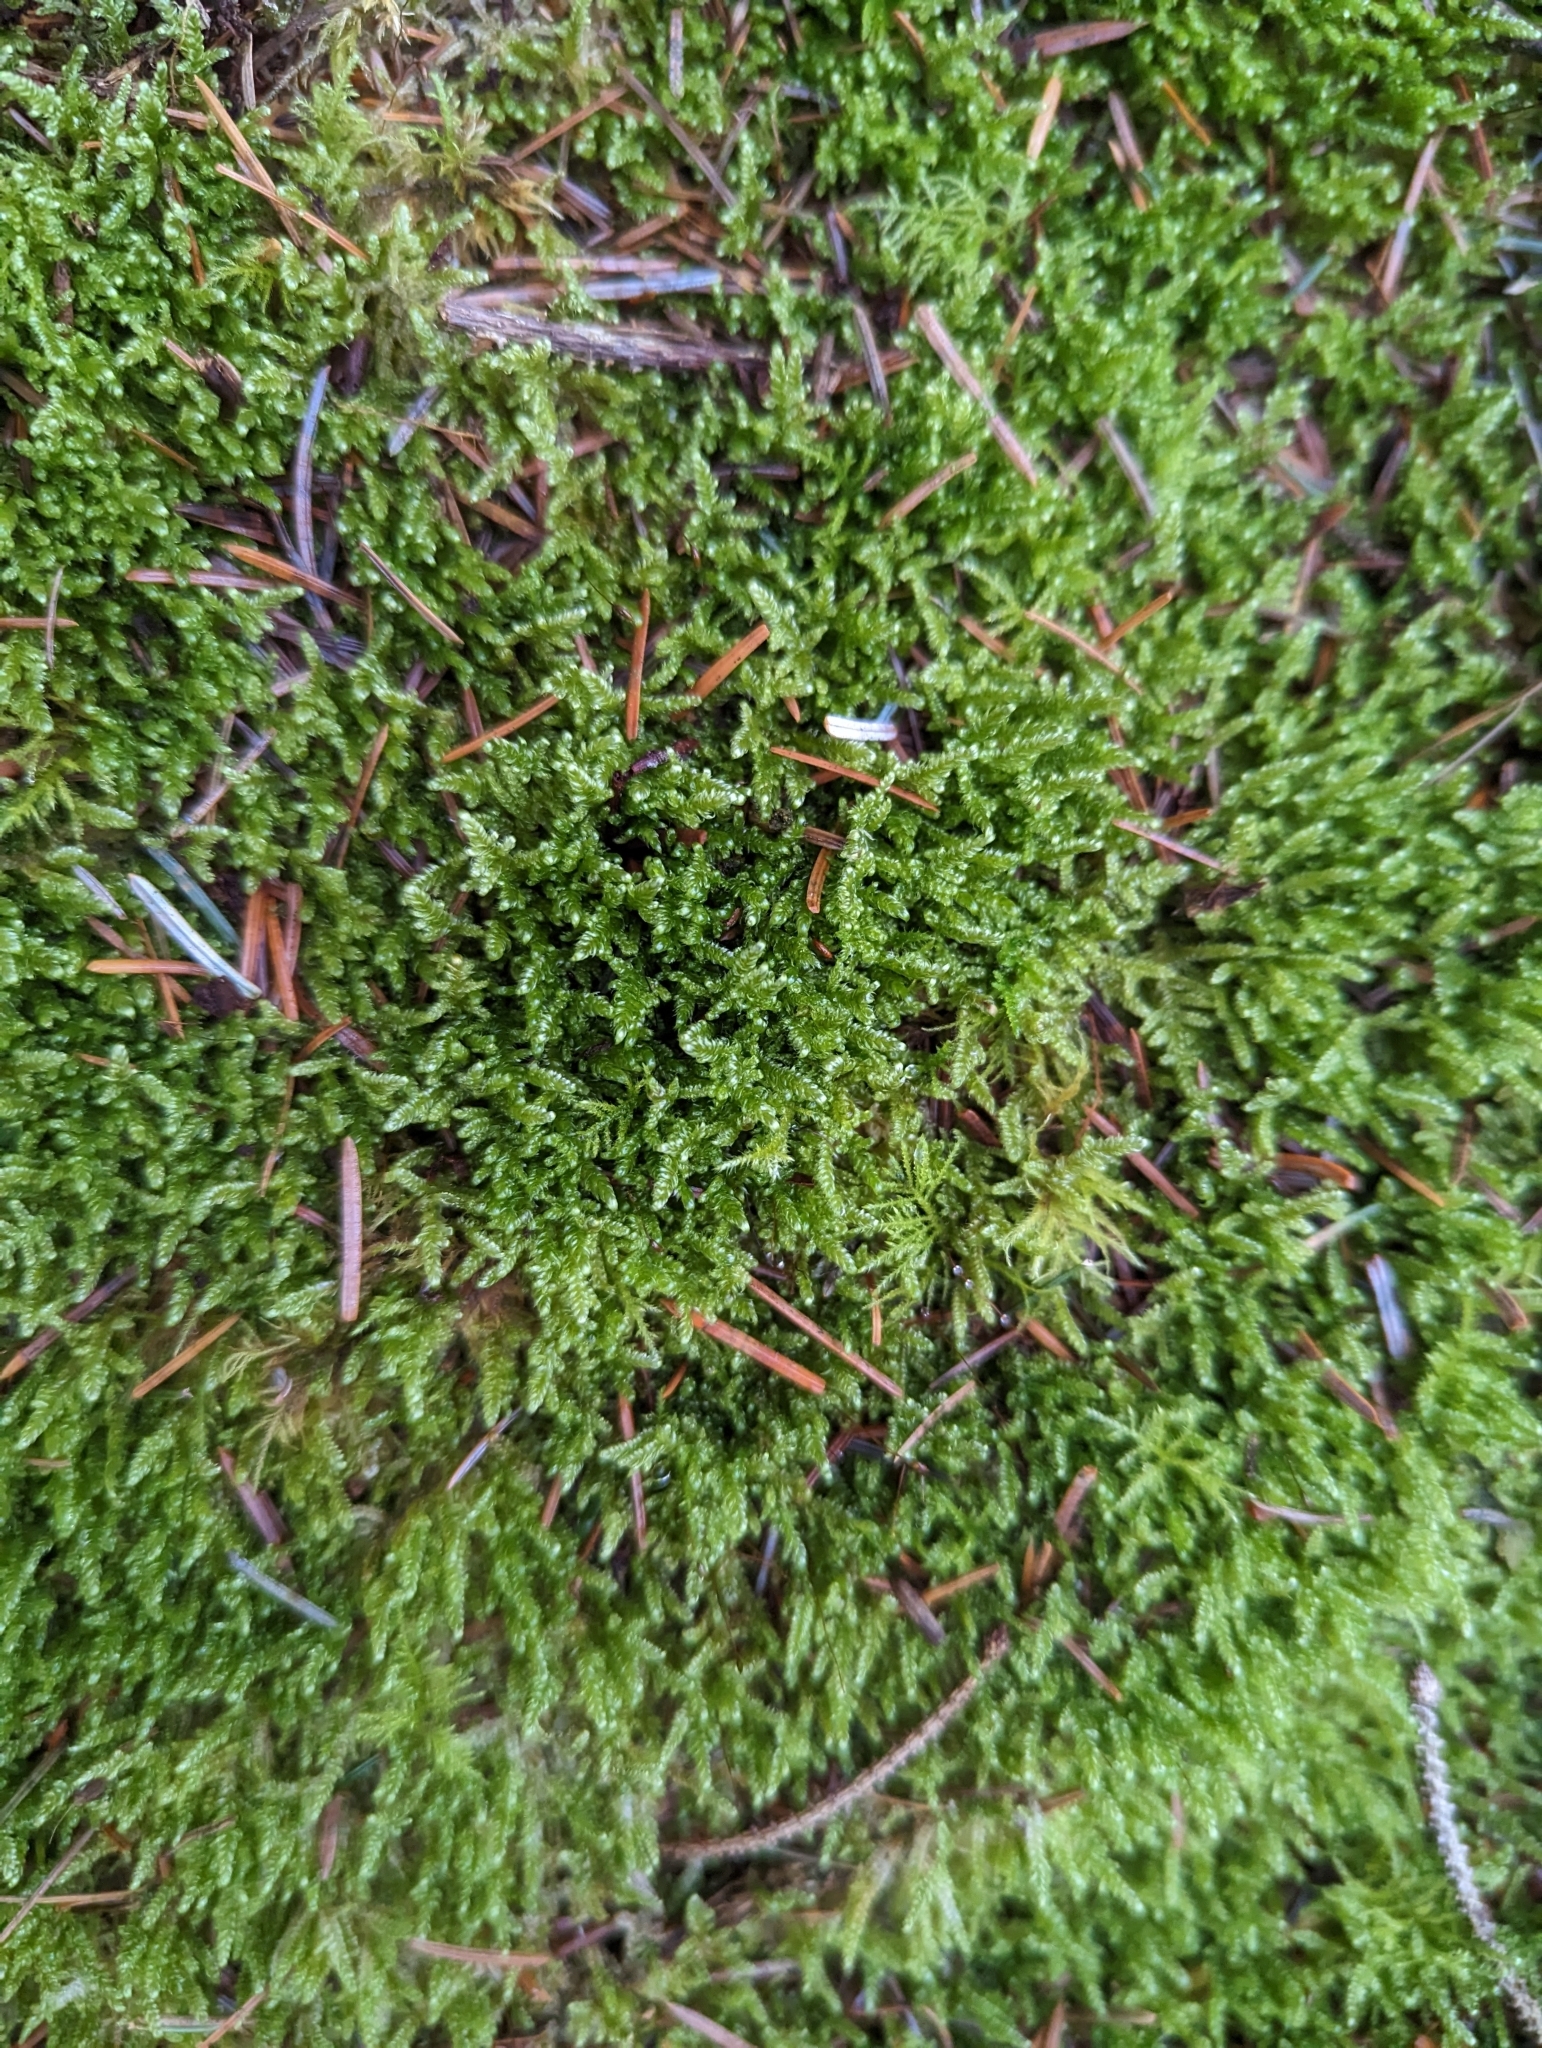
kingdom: Plantae
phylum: Bryophyta
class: Bryopsida
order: Hypnales
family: Hypnaceae
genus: Hypnum
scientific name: Hypnum jutlandicum
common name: Heath plait-moss
